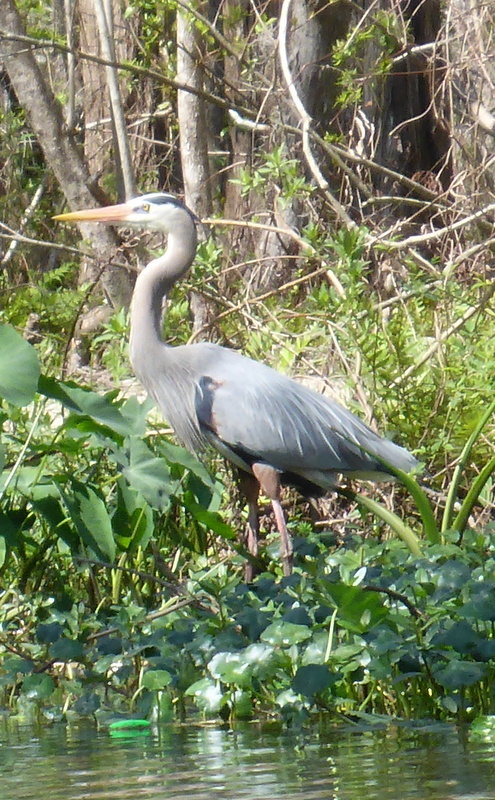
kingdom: Animalia
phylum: Chordata
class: Aves
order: Pelecaniformes
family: Ardeidae
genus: Ardea
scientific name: Ardea herodias
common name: Great blue heron
